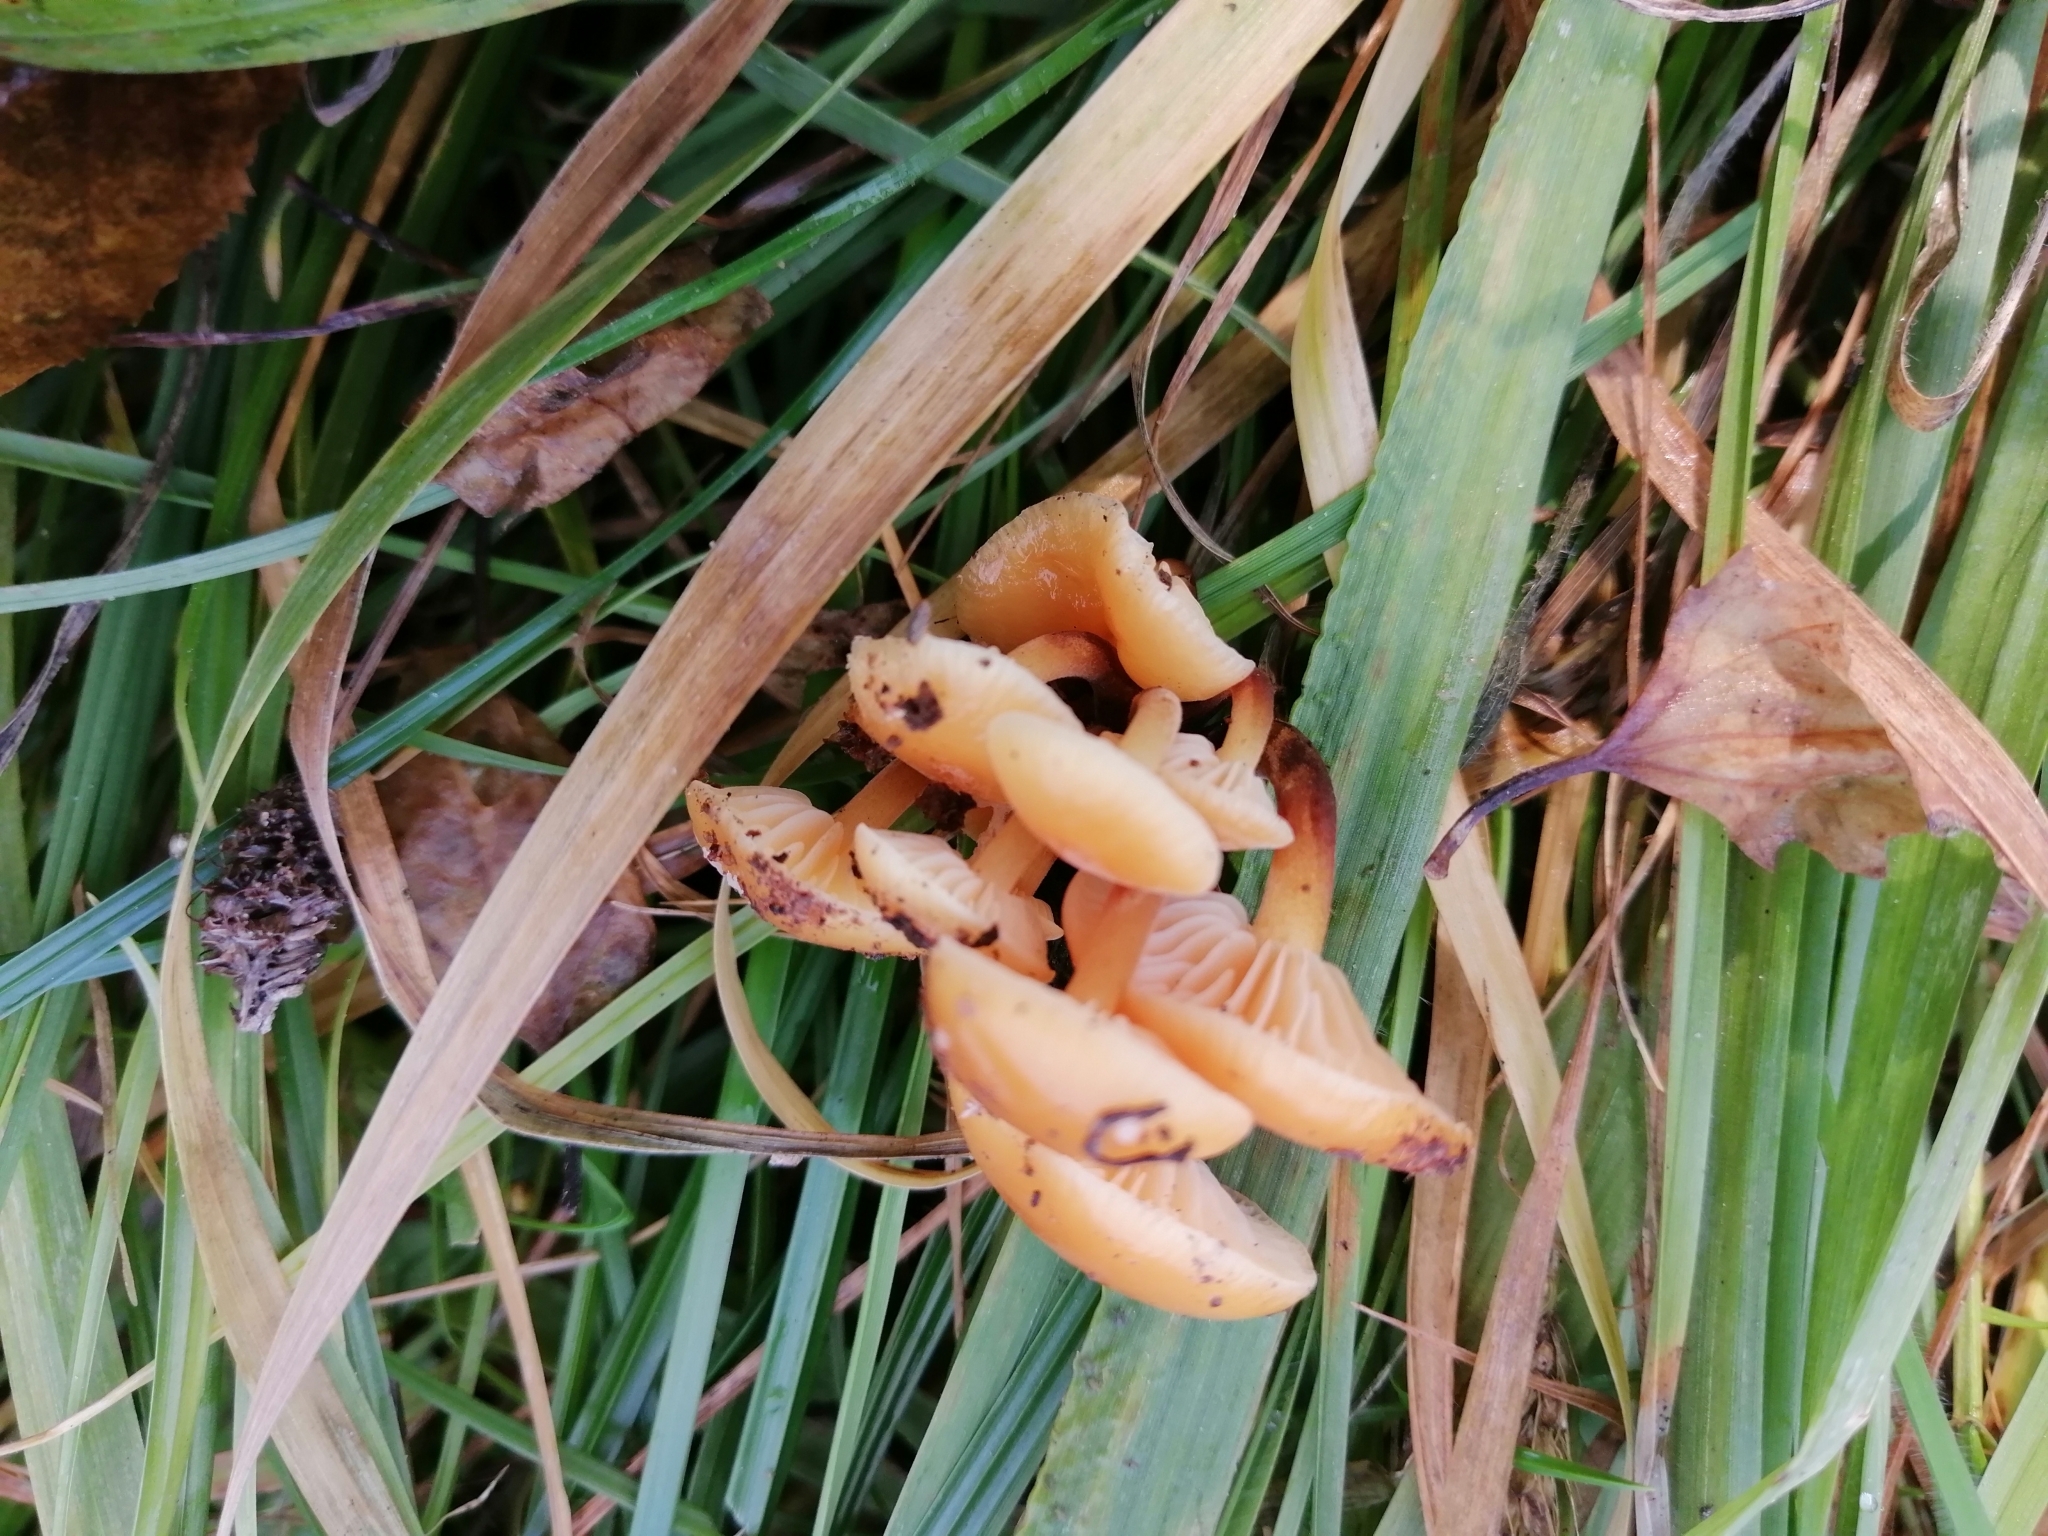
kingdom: Fungi
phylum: Basidiomycota
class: Agaricomycetes
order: Agaricales
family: Physalacriaceae
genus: Flammulina
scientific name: Flammulina
